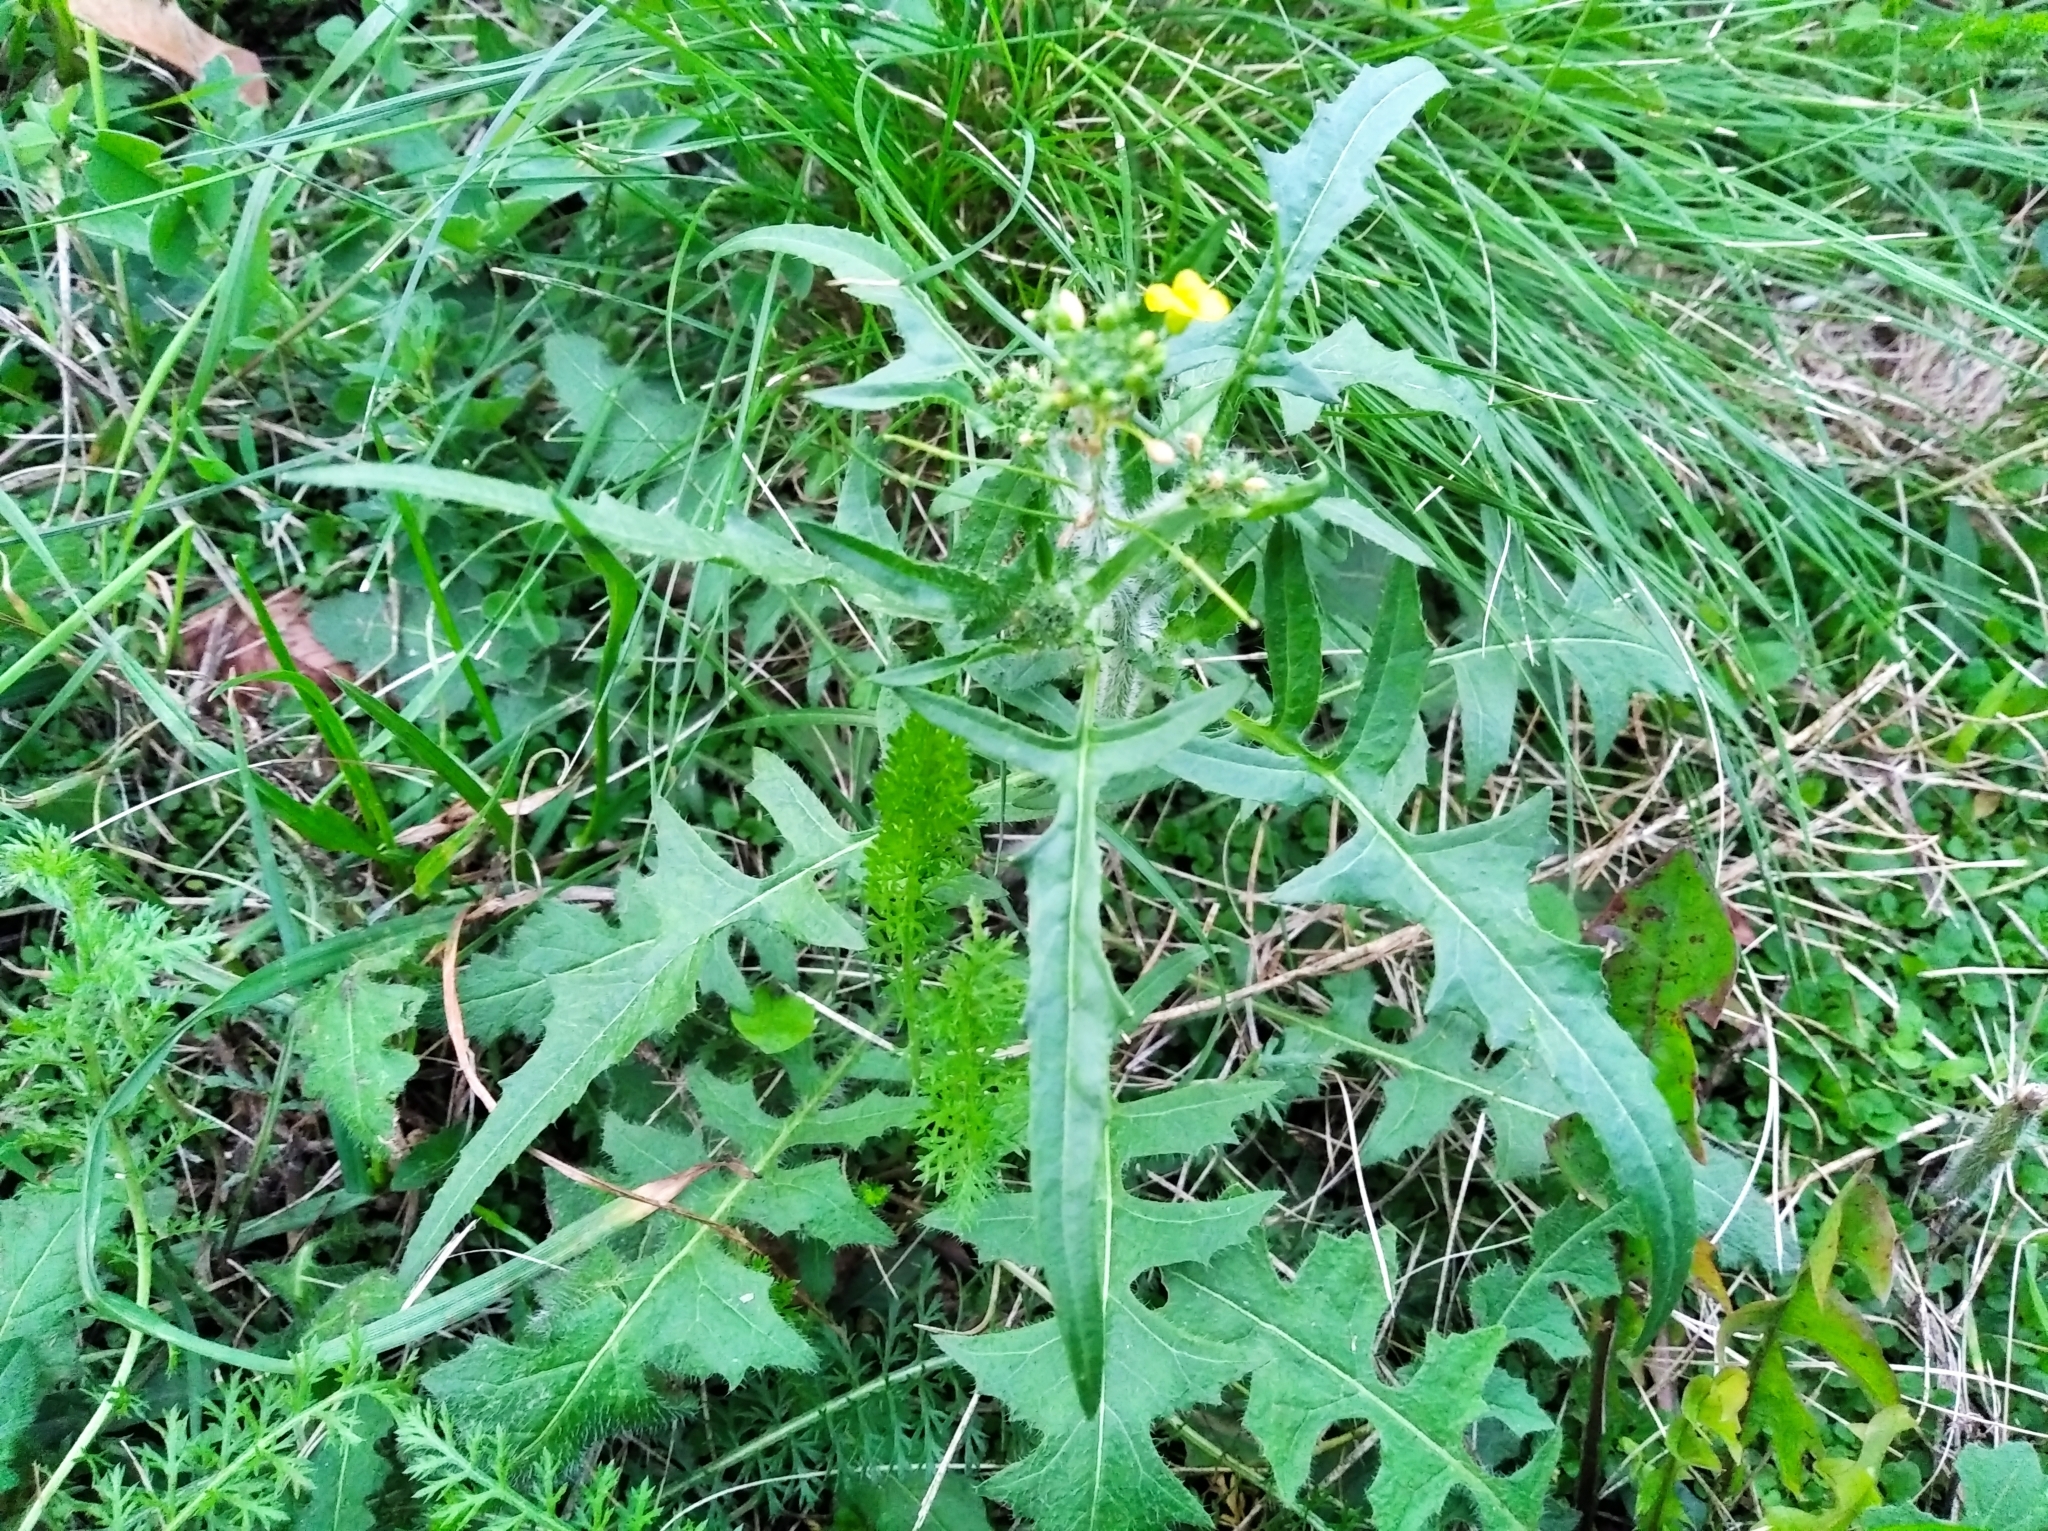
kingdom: Plantae
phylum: Tracheophyta
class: Magnoliopsida
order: Brassicales
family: Brassicaceae
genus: Sisymbrium
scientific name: Sisymbrium loeselii
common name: False london-rocket
